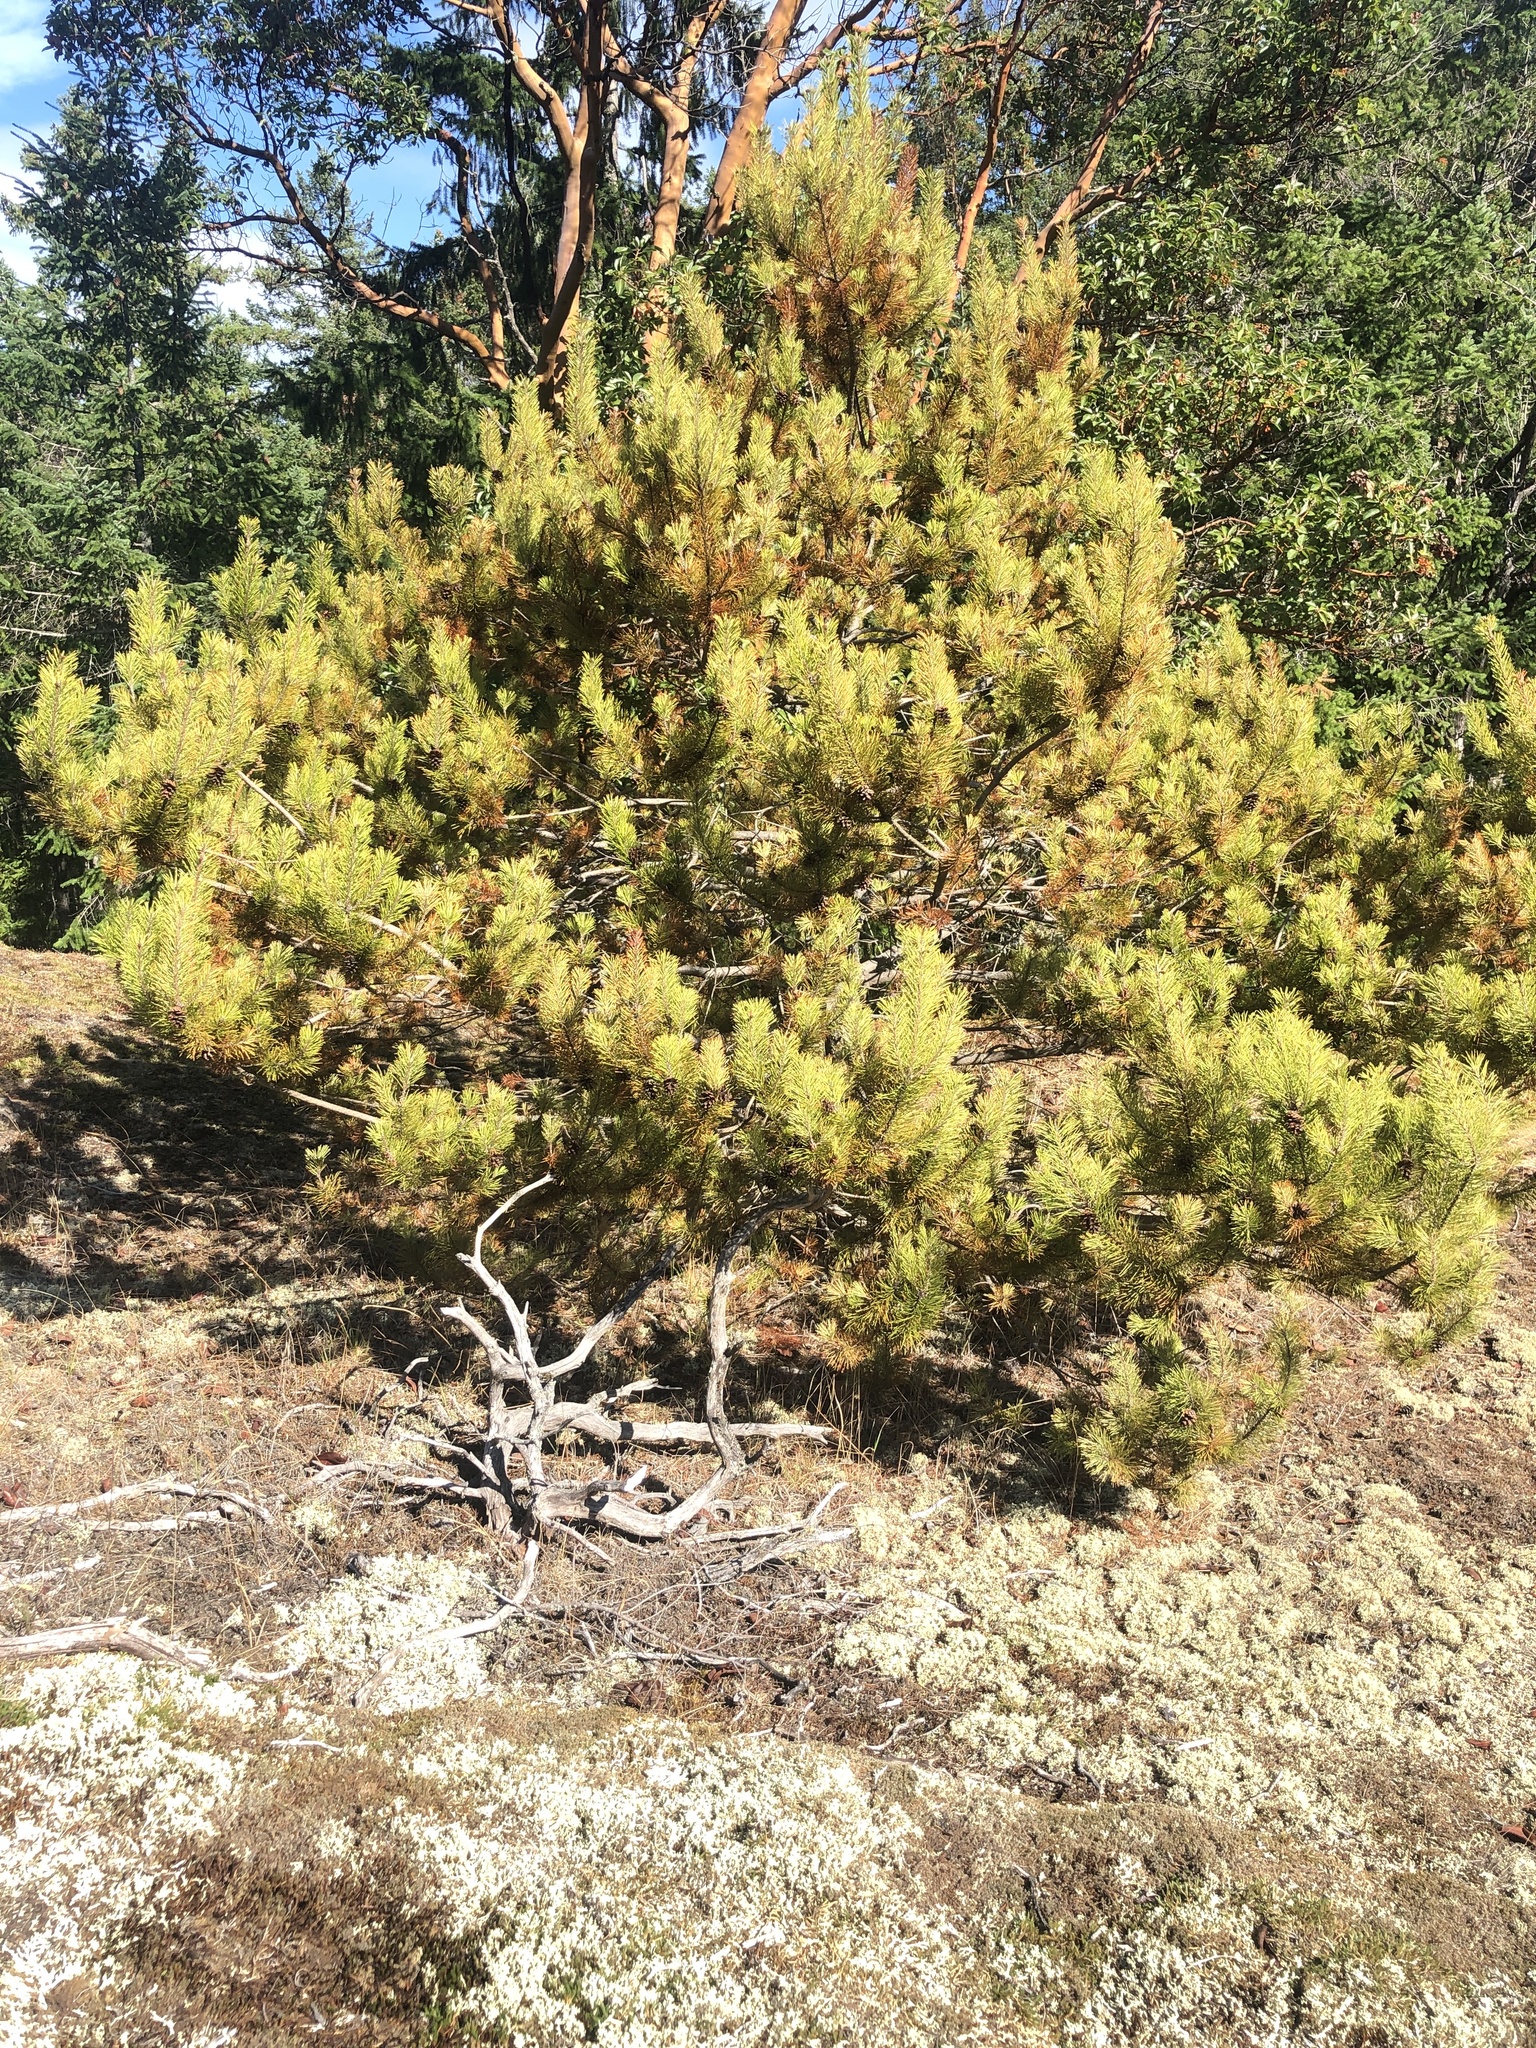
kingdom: Plantae
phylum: Tracheophyta
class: Pinopsida
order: Pinales
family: Pinaceae
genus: Pinus
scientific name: Pinus contorta
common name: Lodgepole pine
